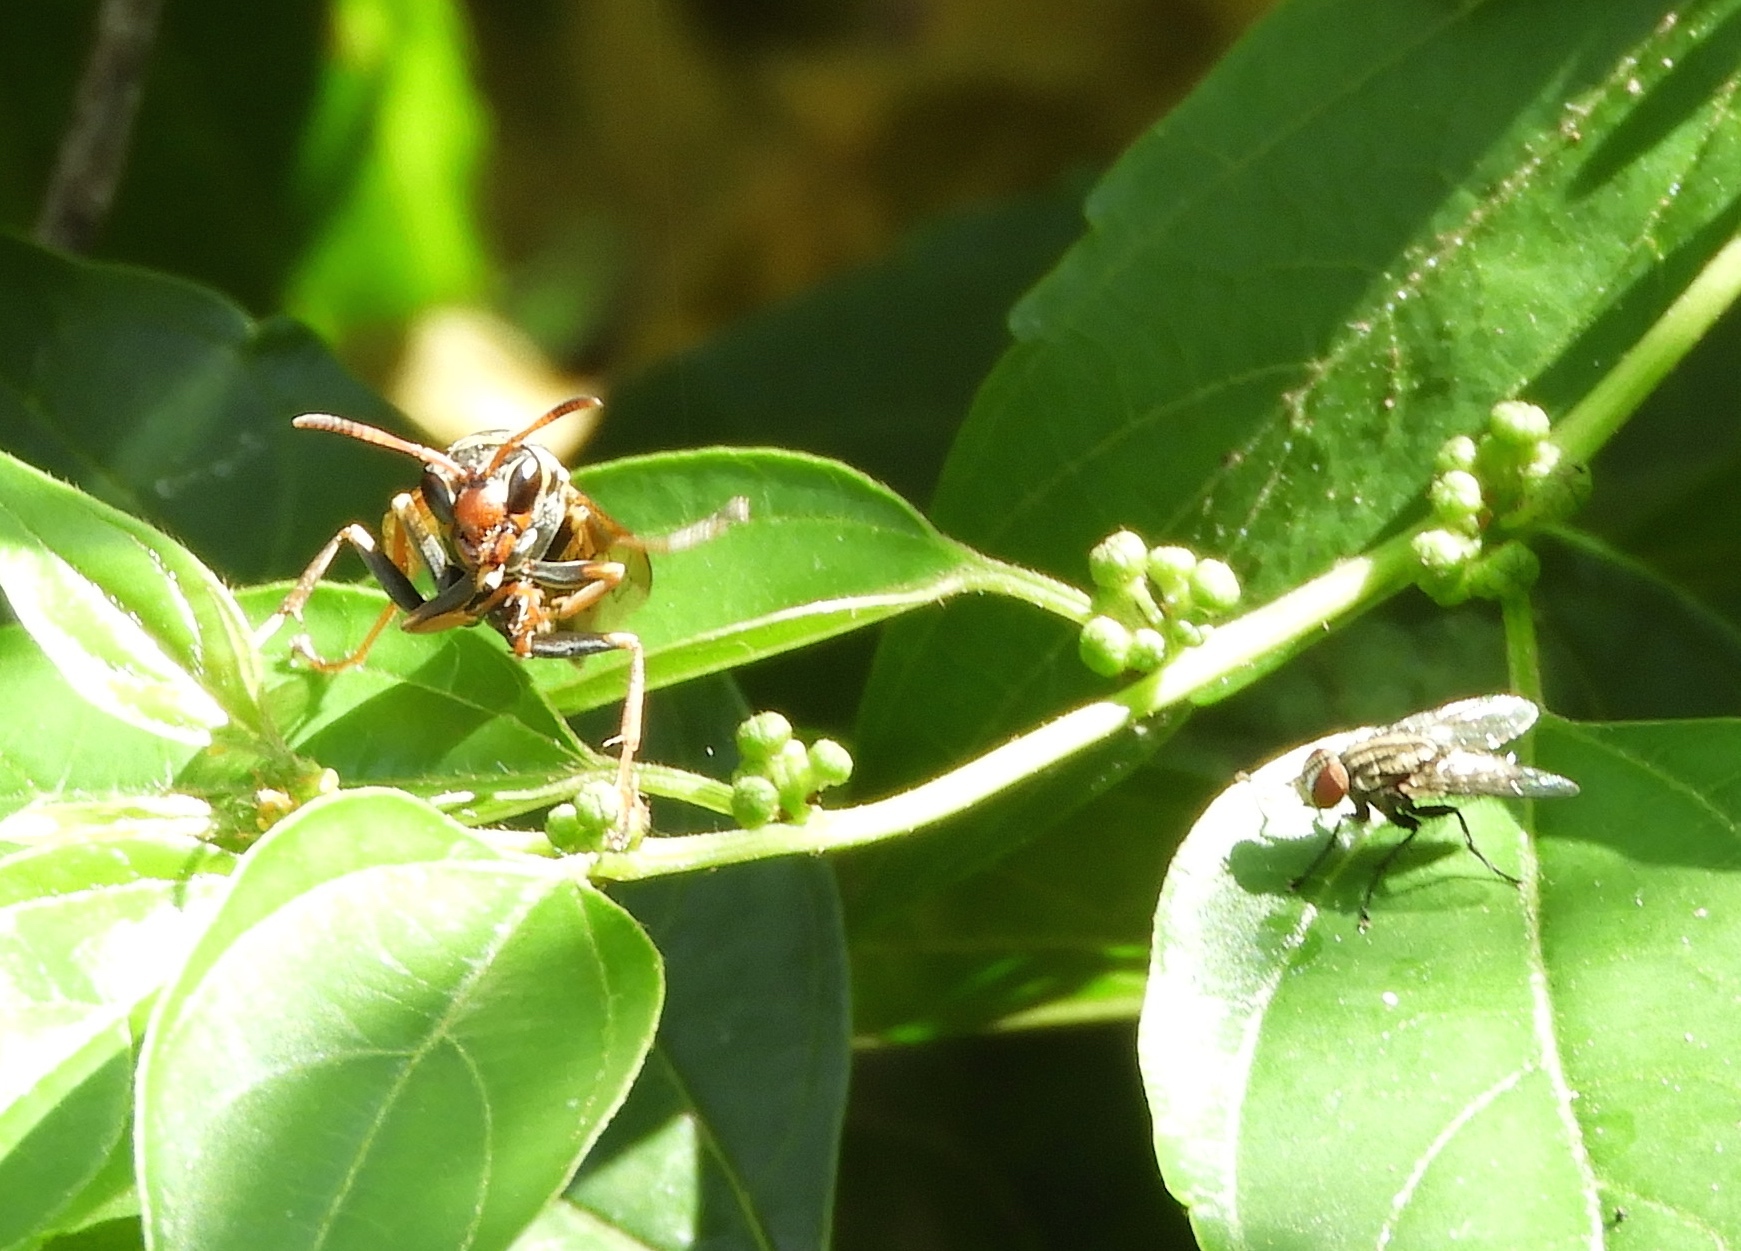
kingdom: Animalia
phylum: Arthropoda
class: Insecta
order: Hymenoptera
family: Eumenidae
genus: Polistes
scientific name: Polistes pacificus
